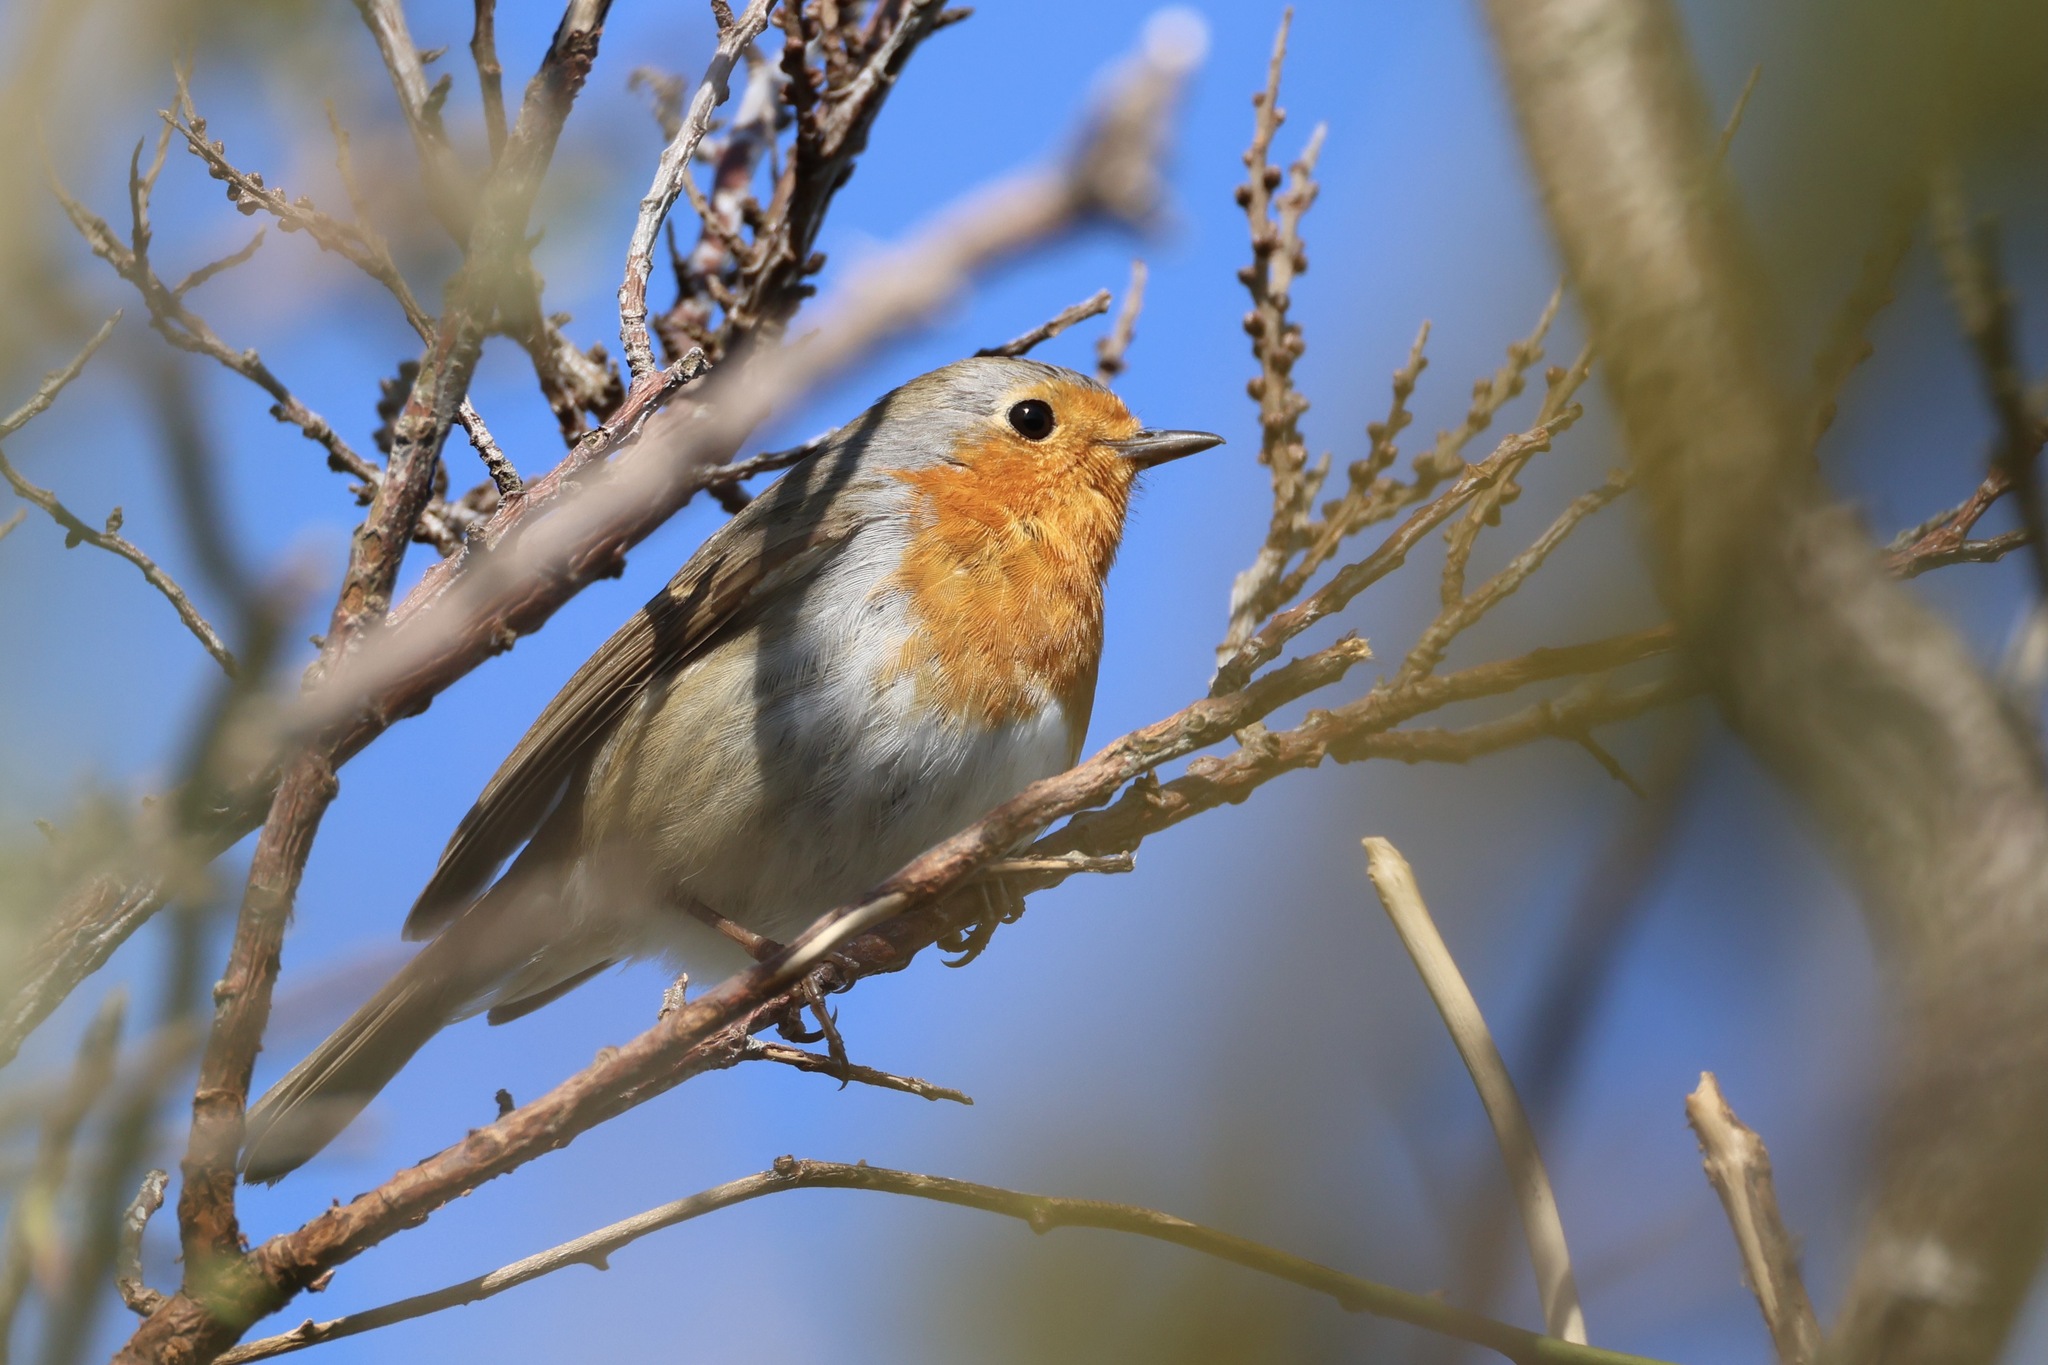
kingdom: Animalia
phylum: Chordata
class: Aves
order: Passeriformes
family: Muscicapidae
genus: Erithacus
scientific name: Erithacus rubecula
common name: European robin
